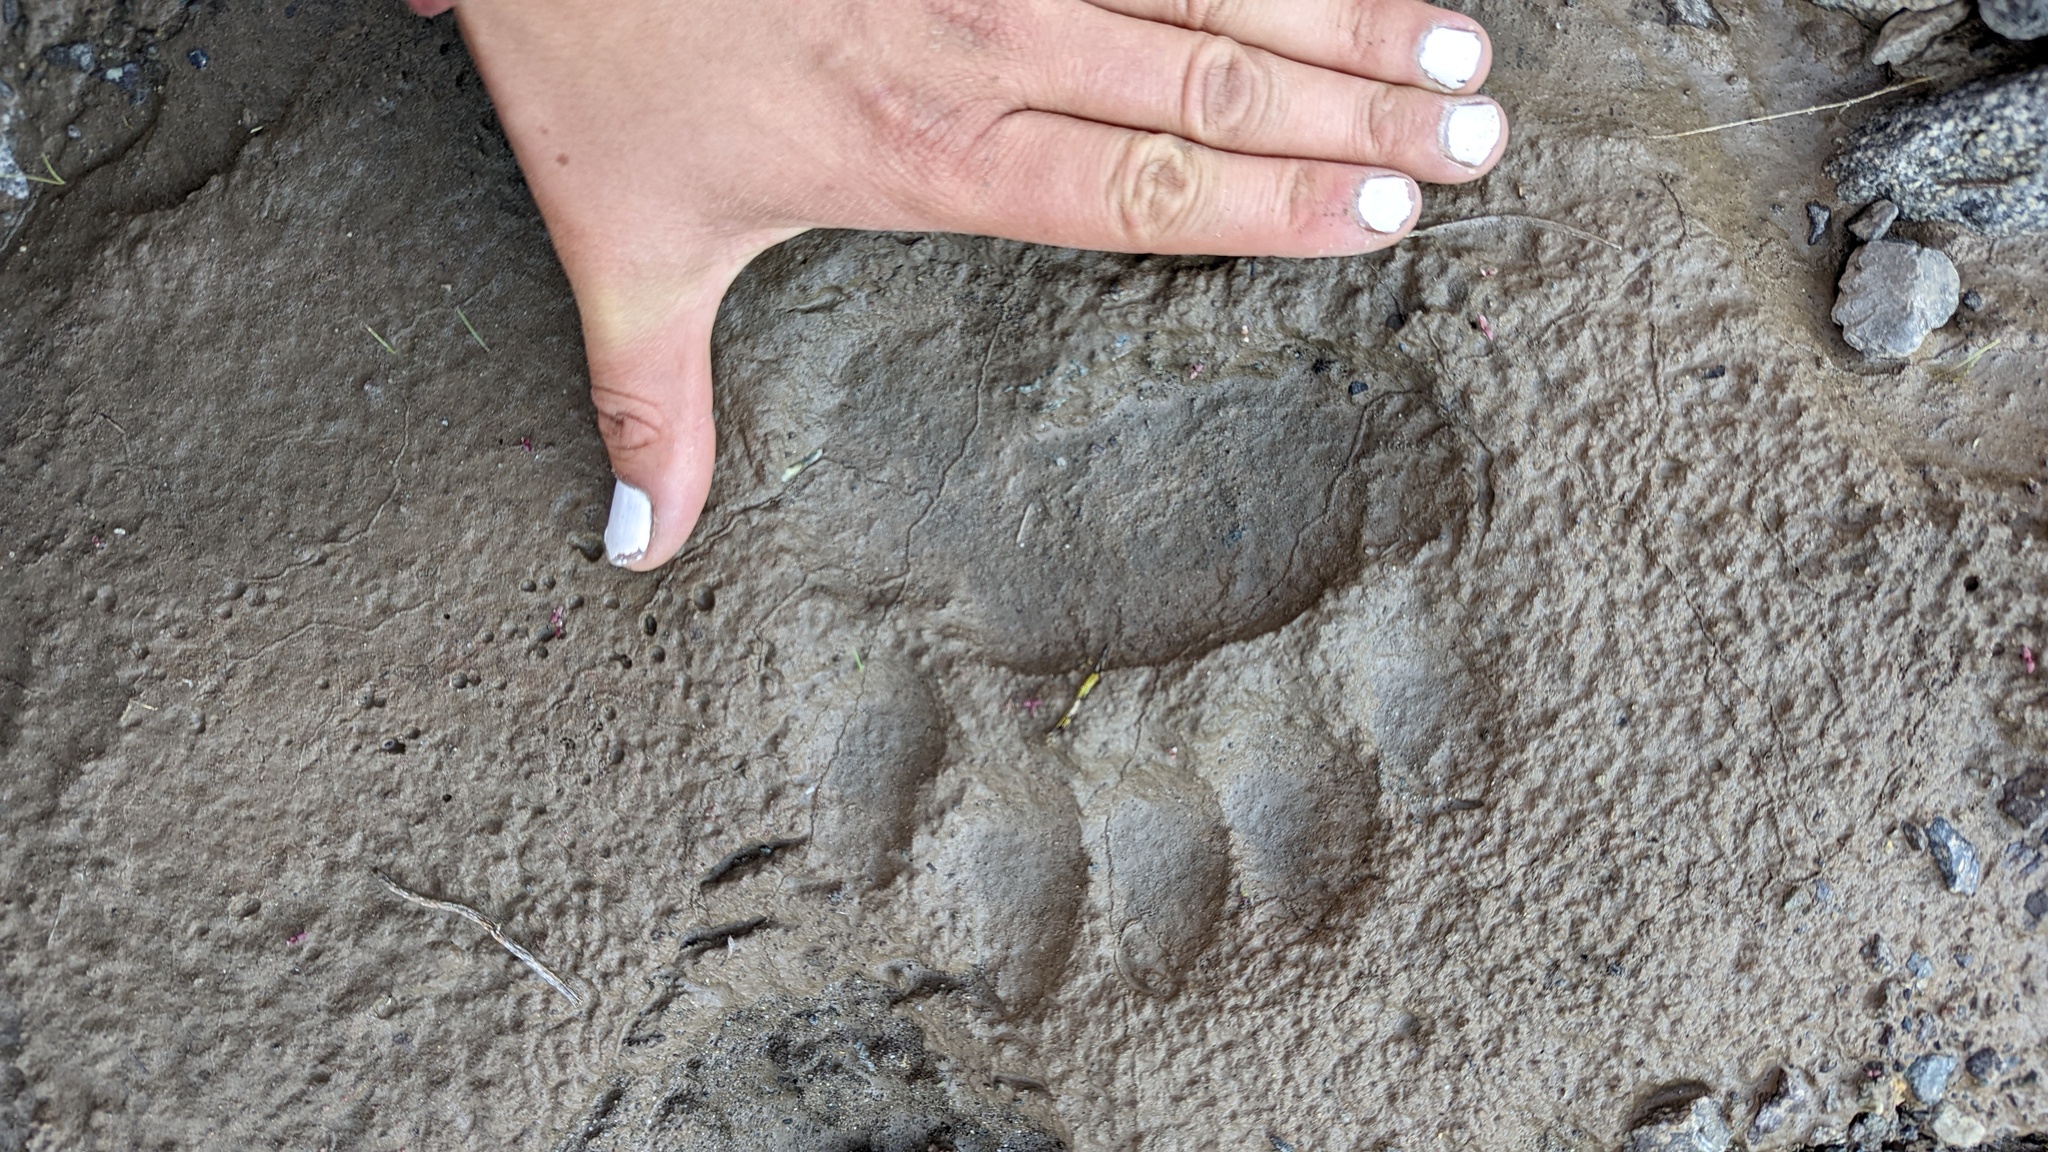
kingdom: Animalia
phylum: Chordata
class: Mammalia
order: Carnivora
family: Ursidae
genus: Ursus
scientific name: Ursus americanus
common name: American black bear
